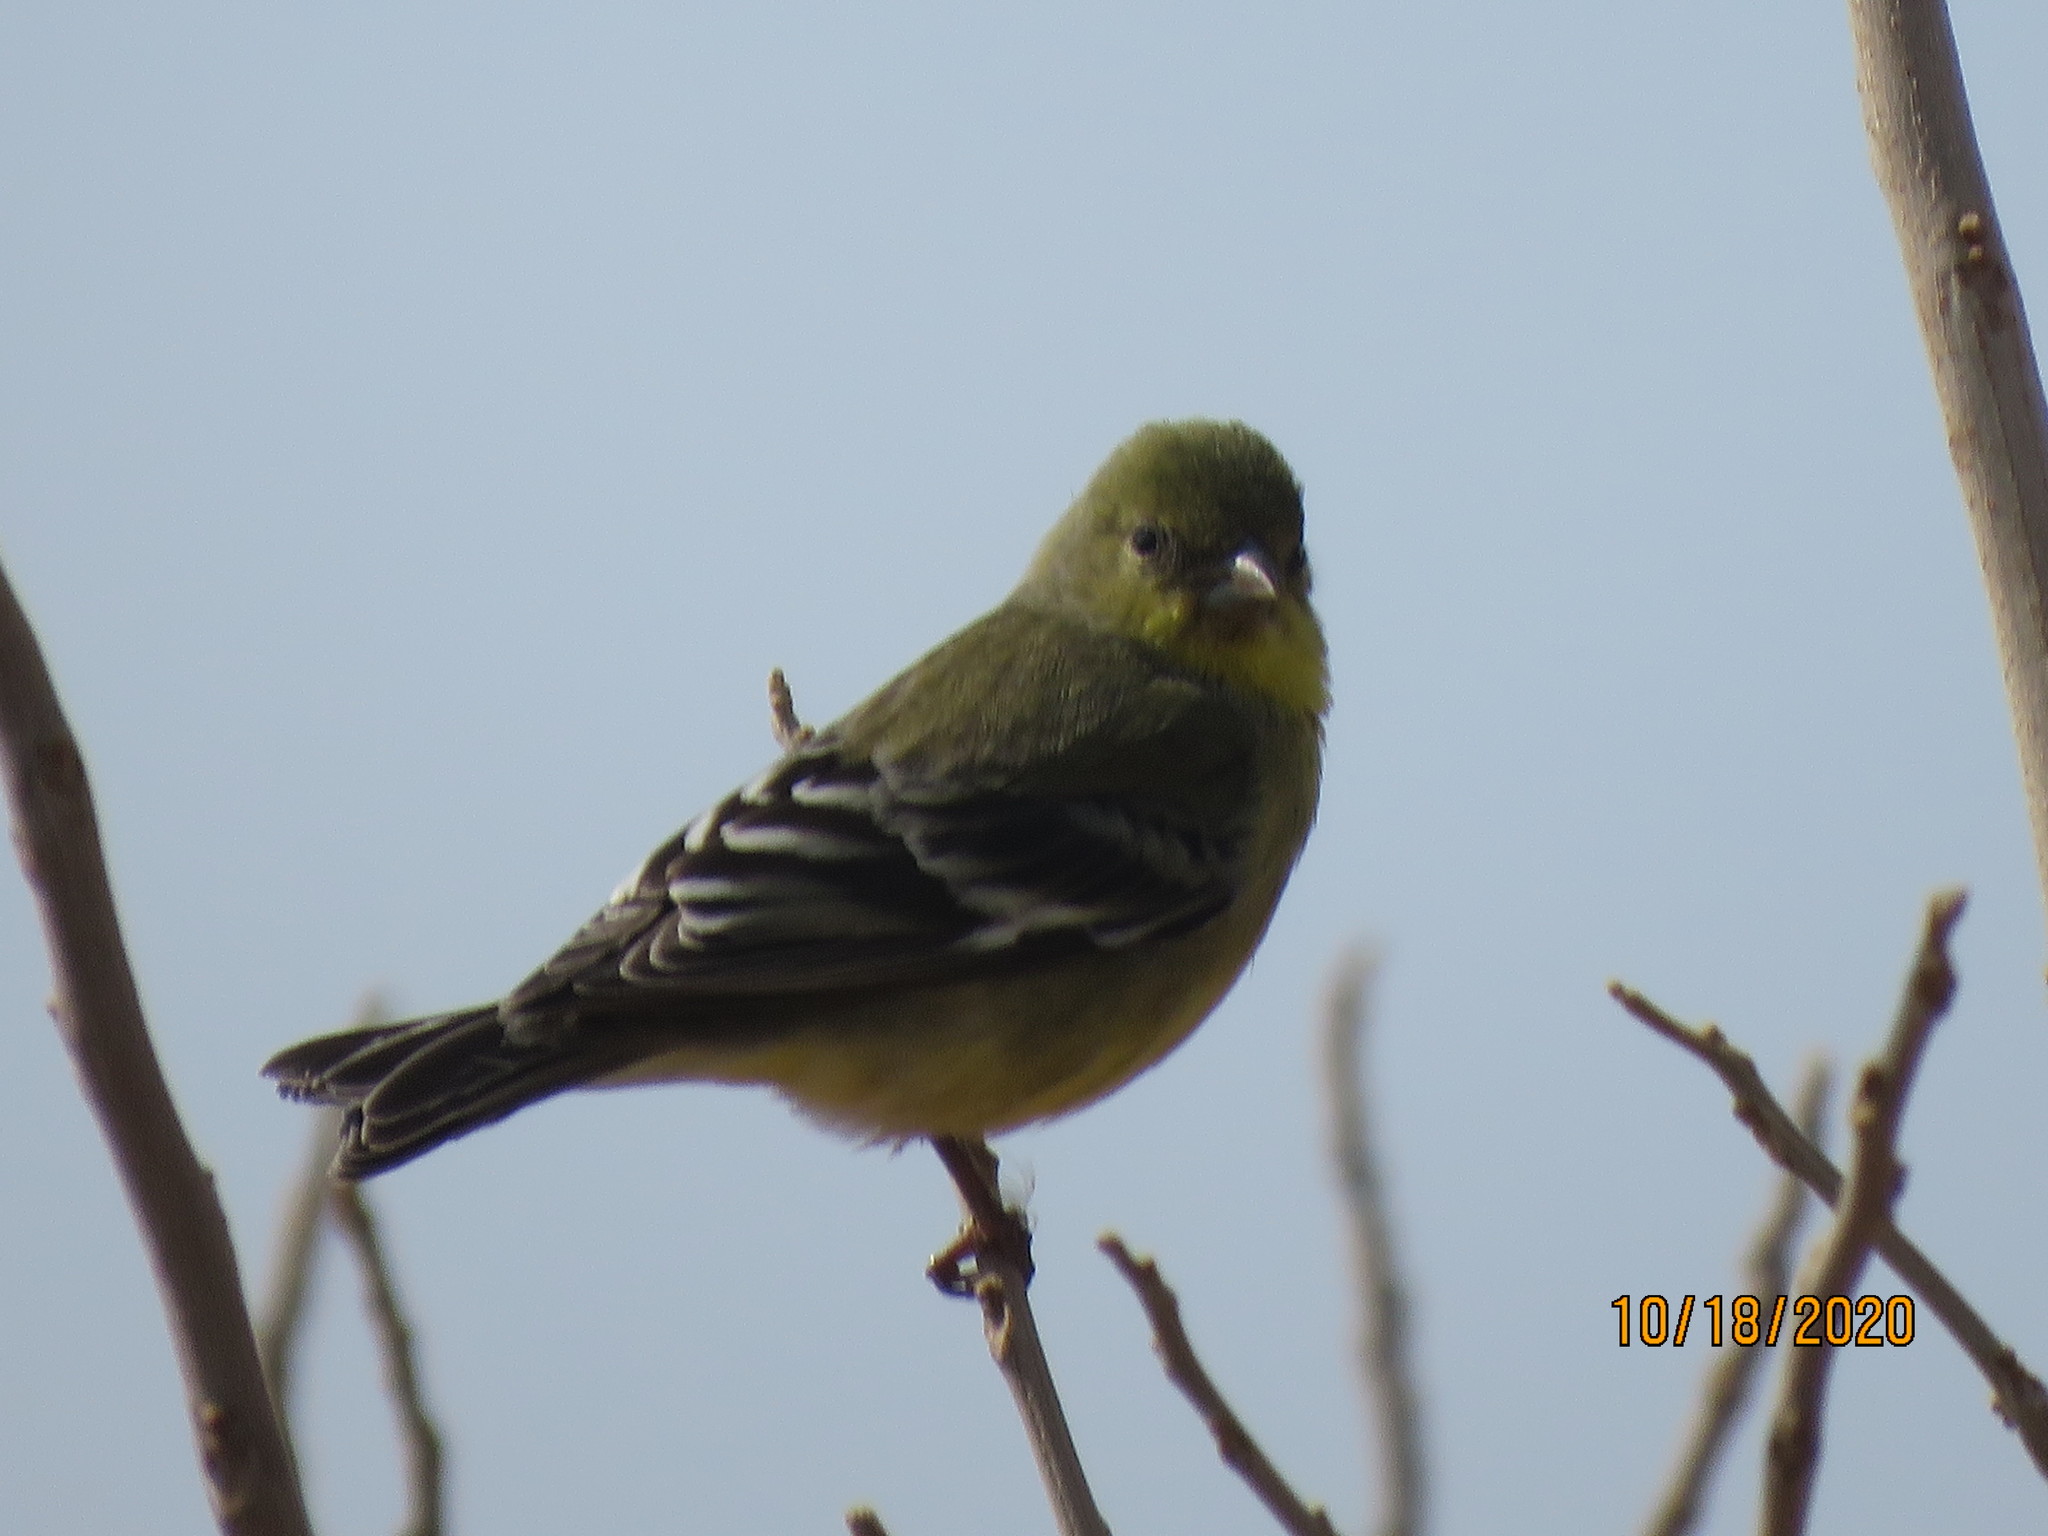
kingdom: Animalia
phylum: Chordata
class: Aves
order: Passeriformes
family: Fringillidae
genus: Spinus
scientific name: Spinus psaltria
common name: Lesser goldfinch
